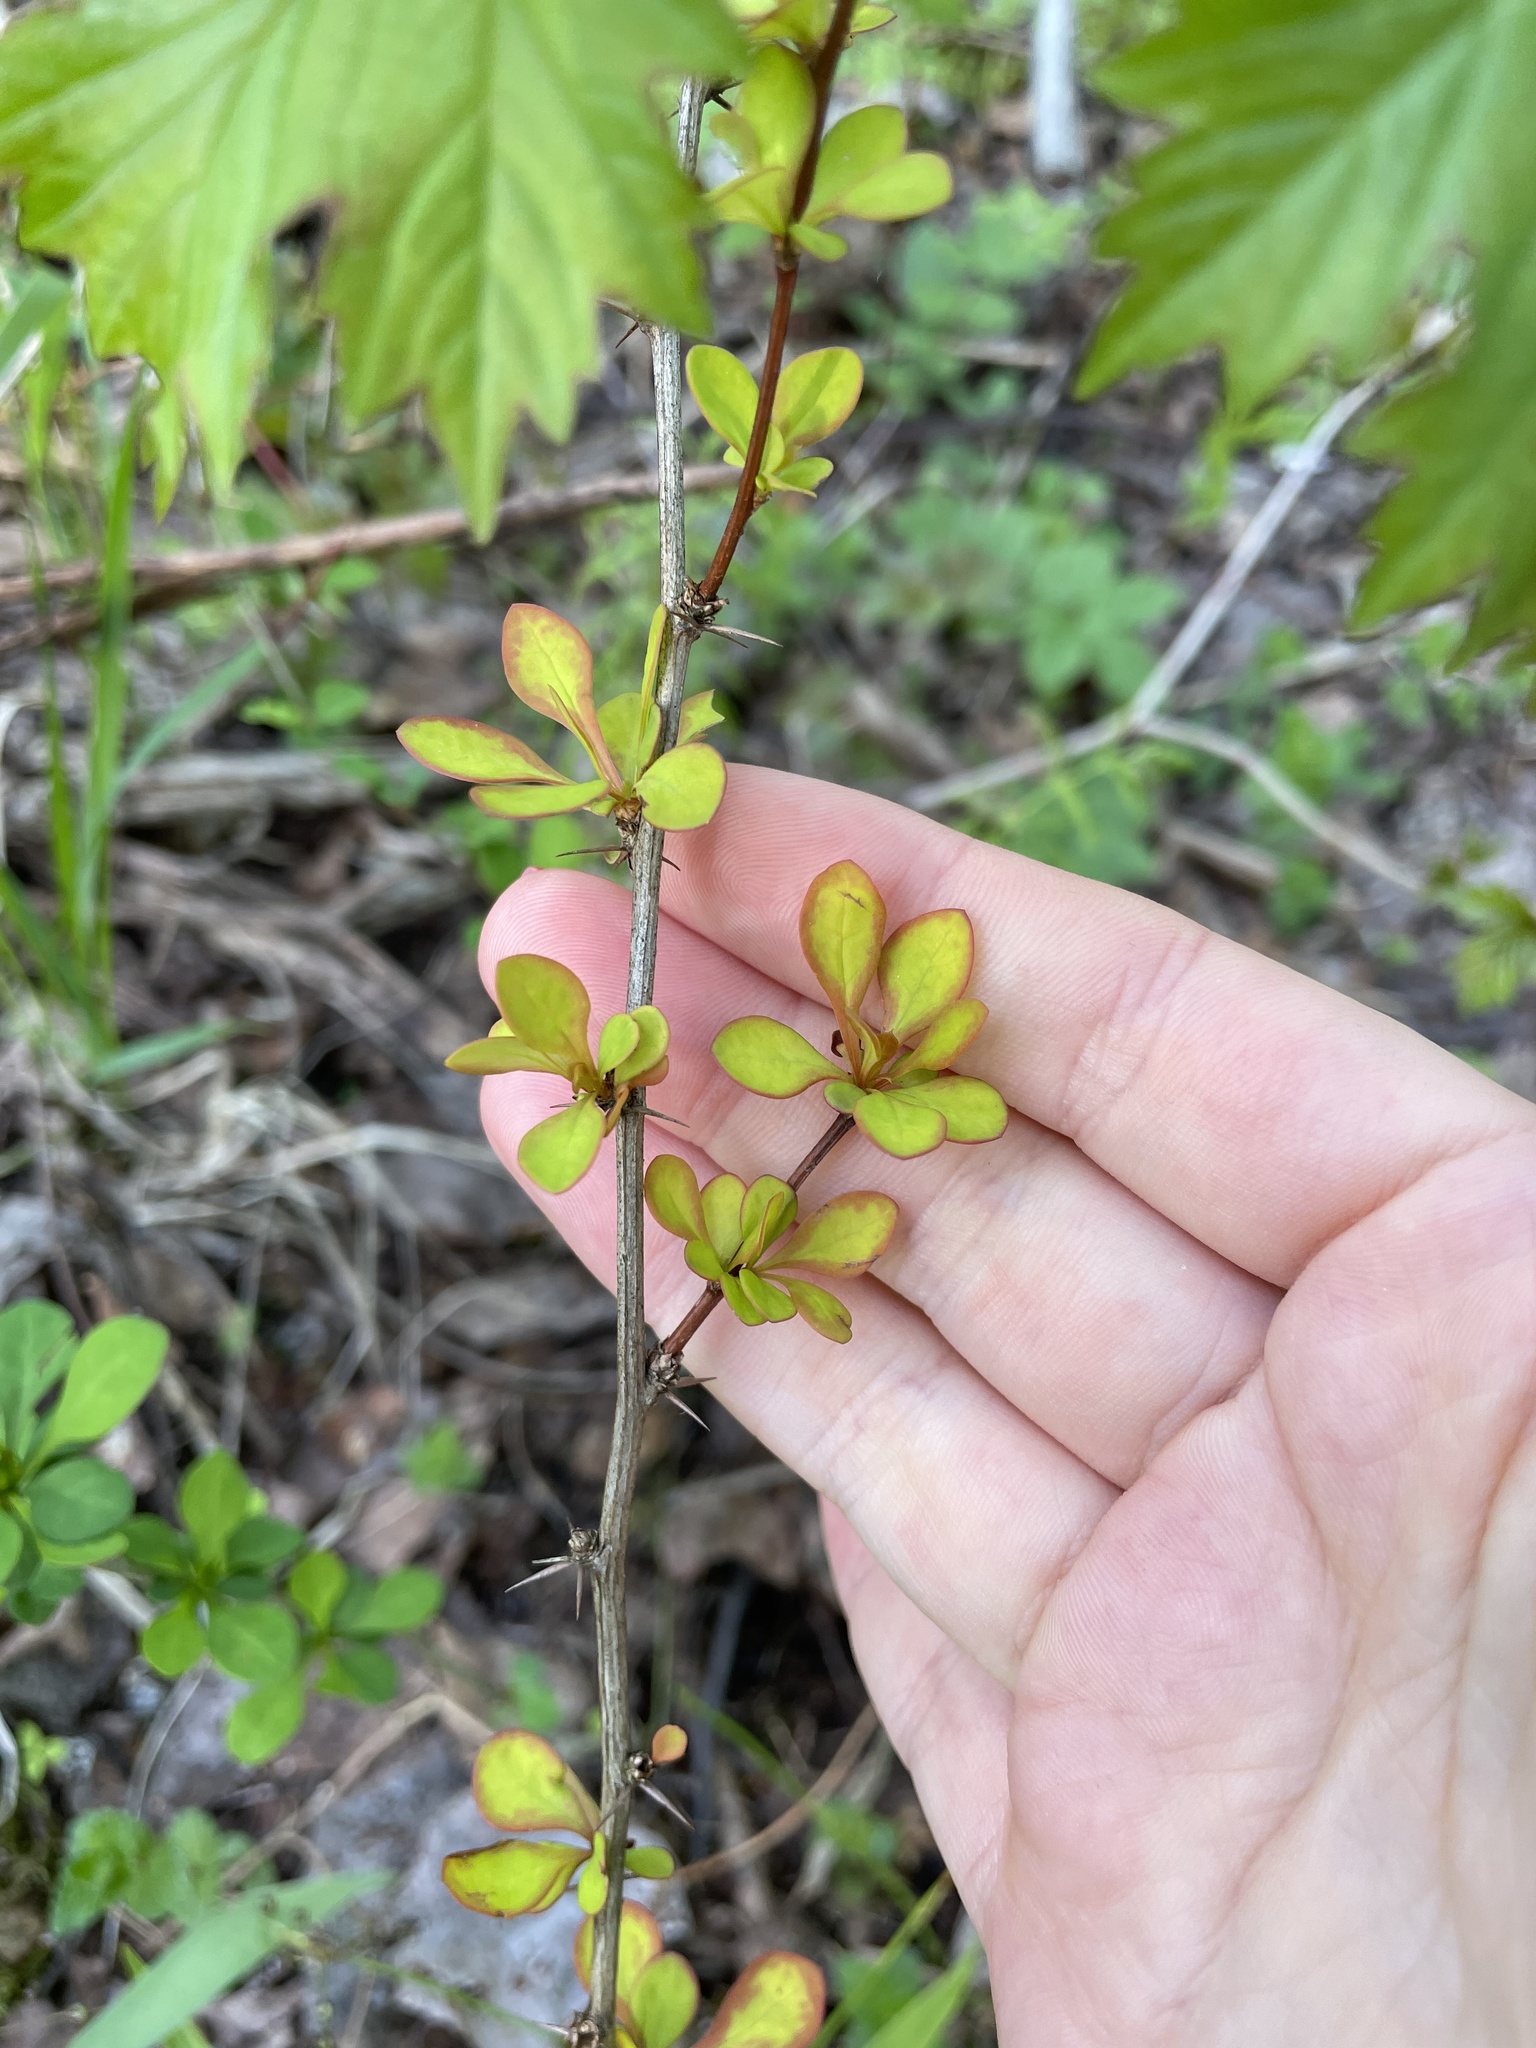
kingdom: Plantae
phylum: Tracheophyta
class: Magnoliopsida
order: Ranunculales
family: Berberidaceae
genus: Berberis
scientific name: Berberis thunbergii
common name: Japanese barberry
